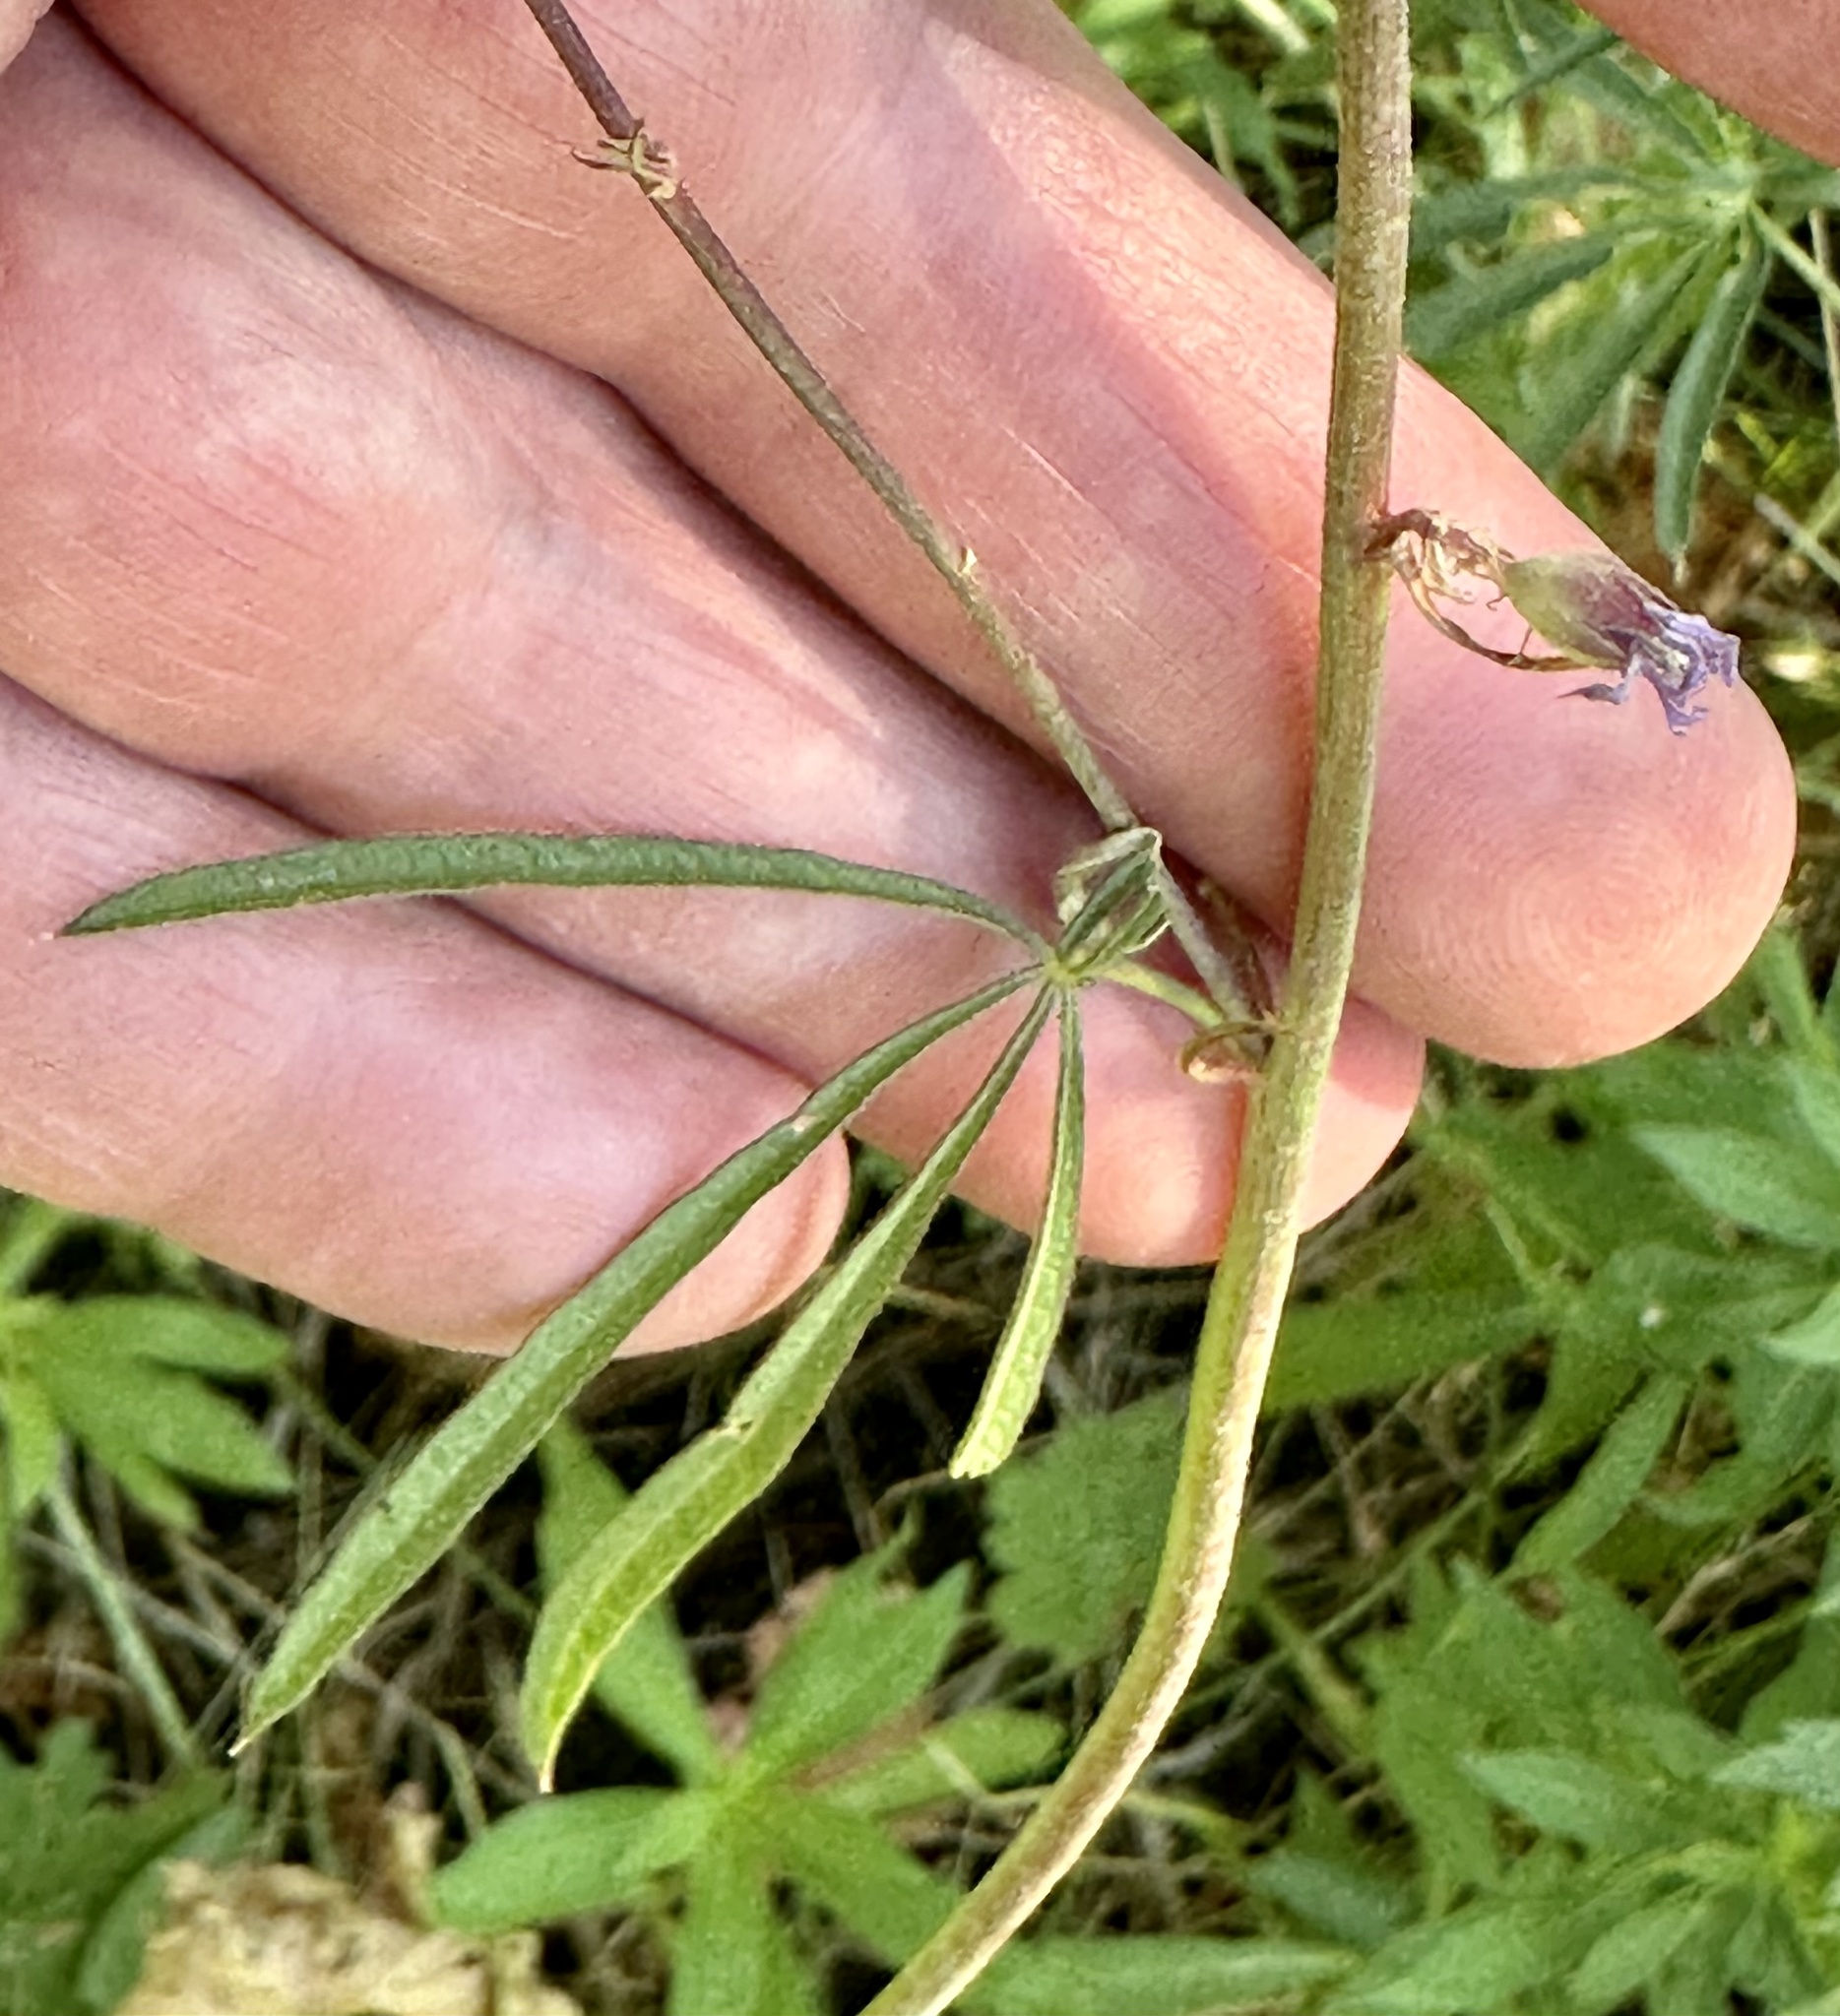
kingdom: Plantae
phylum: Tracheophyta
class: Magnoliopsida
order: Malvales
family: Malvaceae
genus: Sidalcea
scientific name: Sidalcea oregana
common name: Oregon checker-mallow
